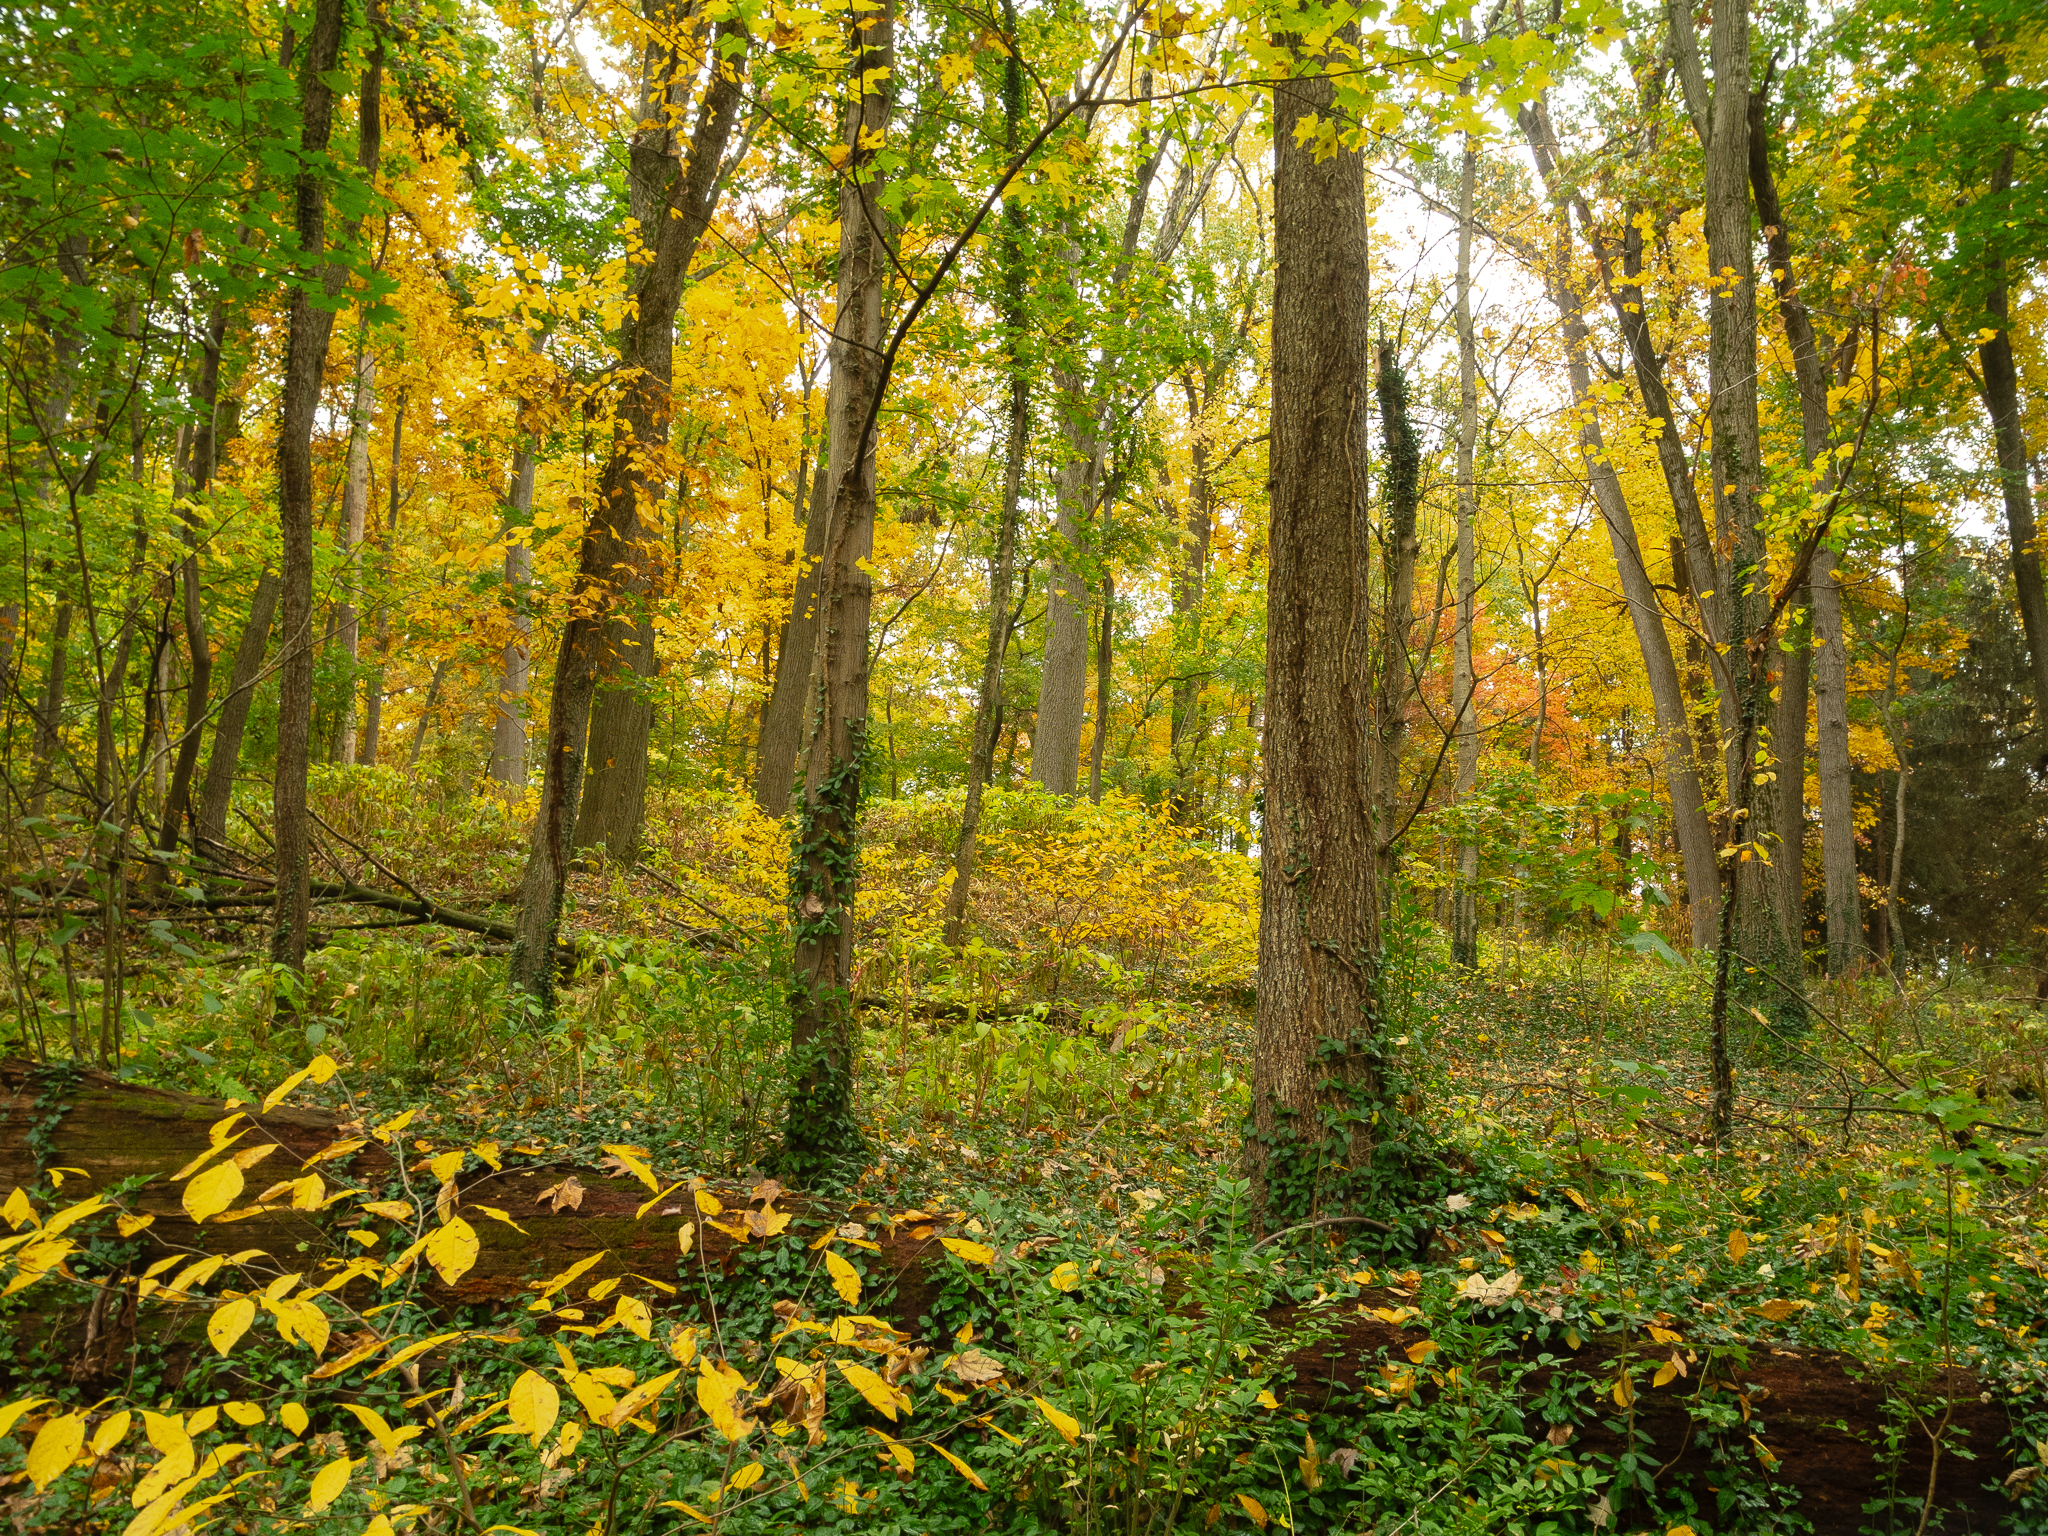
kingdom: Plantae
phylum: Tracheophyta
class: Magnoliopsida
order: Sapindales
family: Sapindaceae
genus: Acer
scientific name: Acer platanoides
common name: Norway maple
